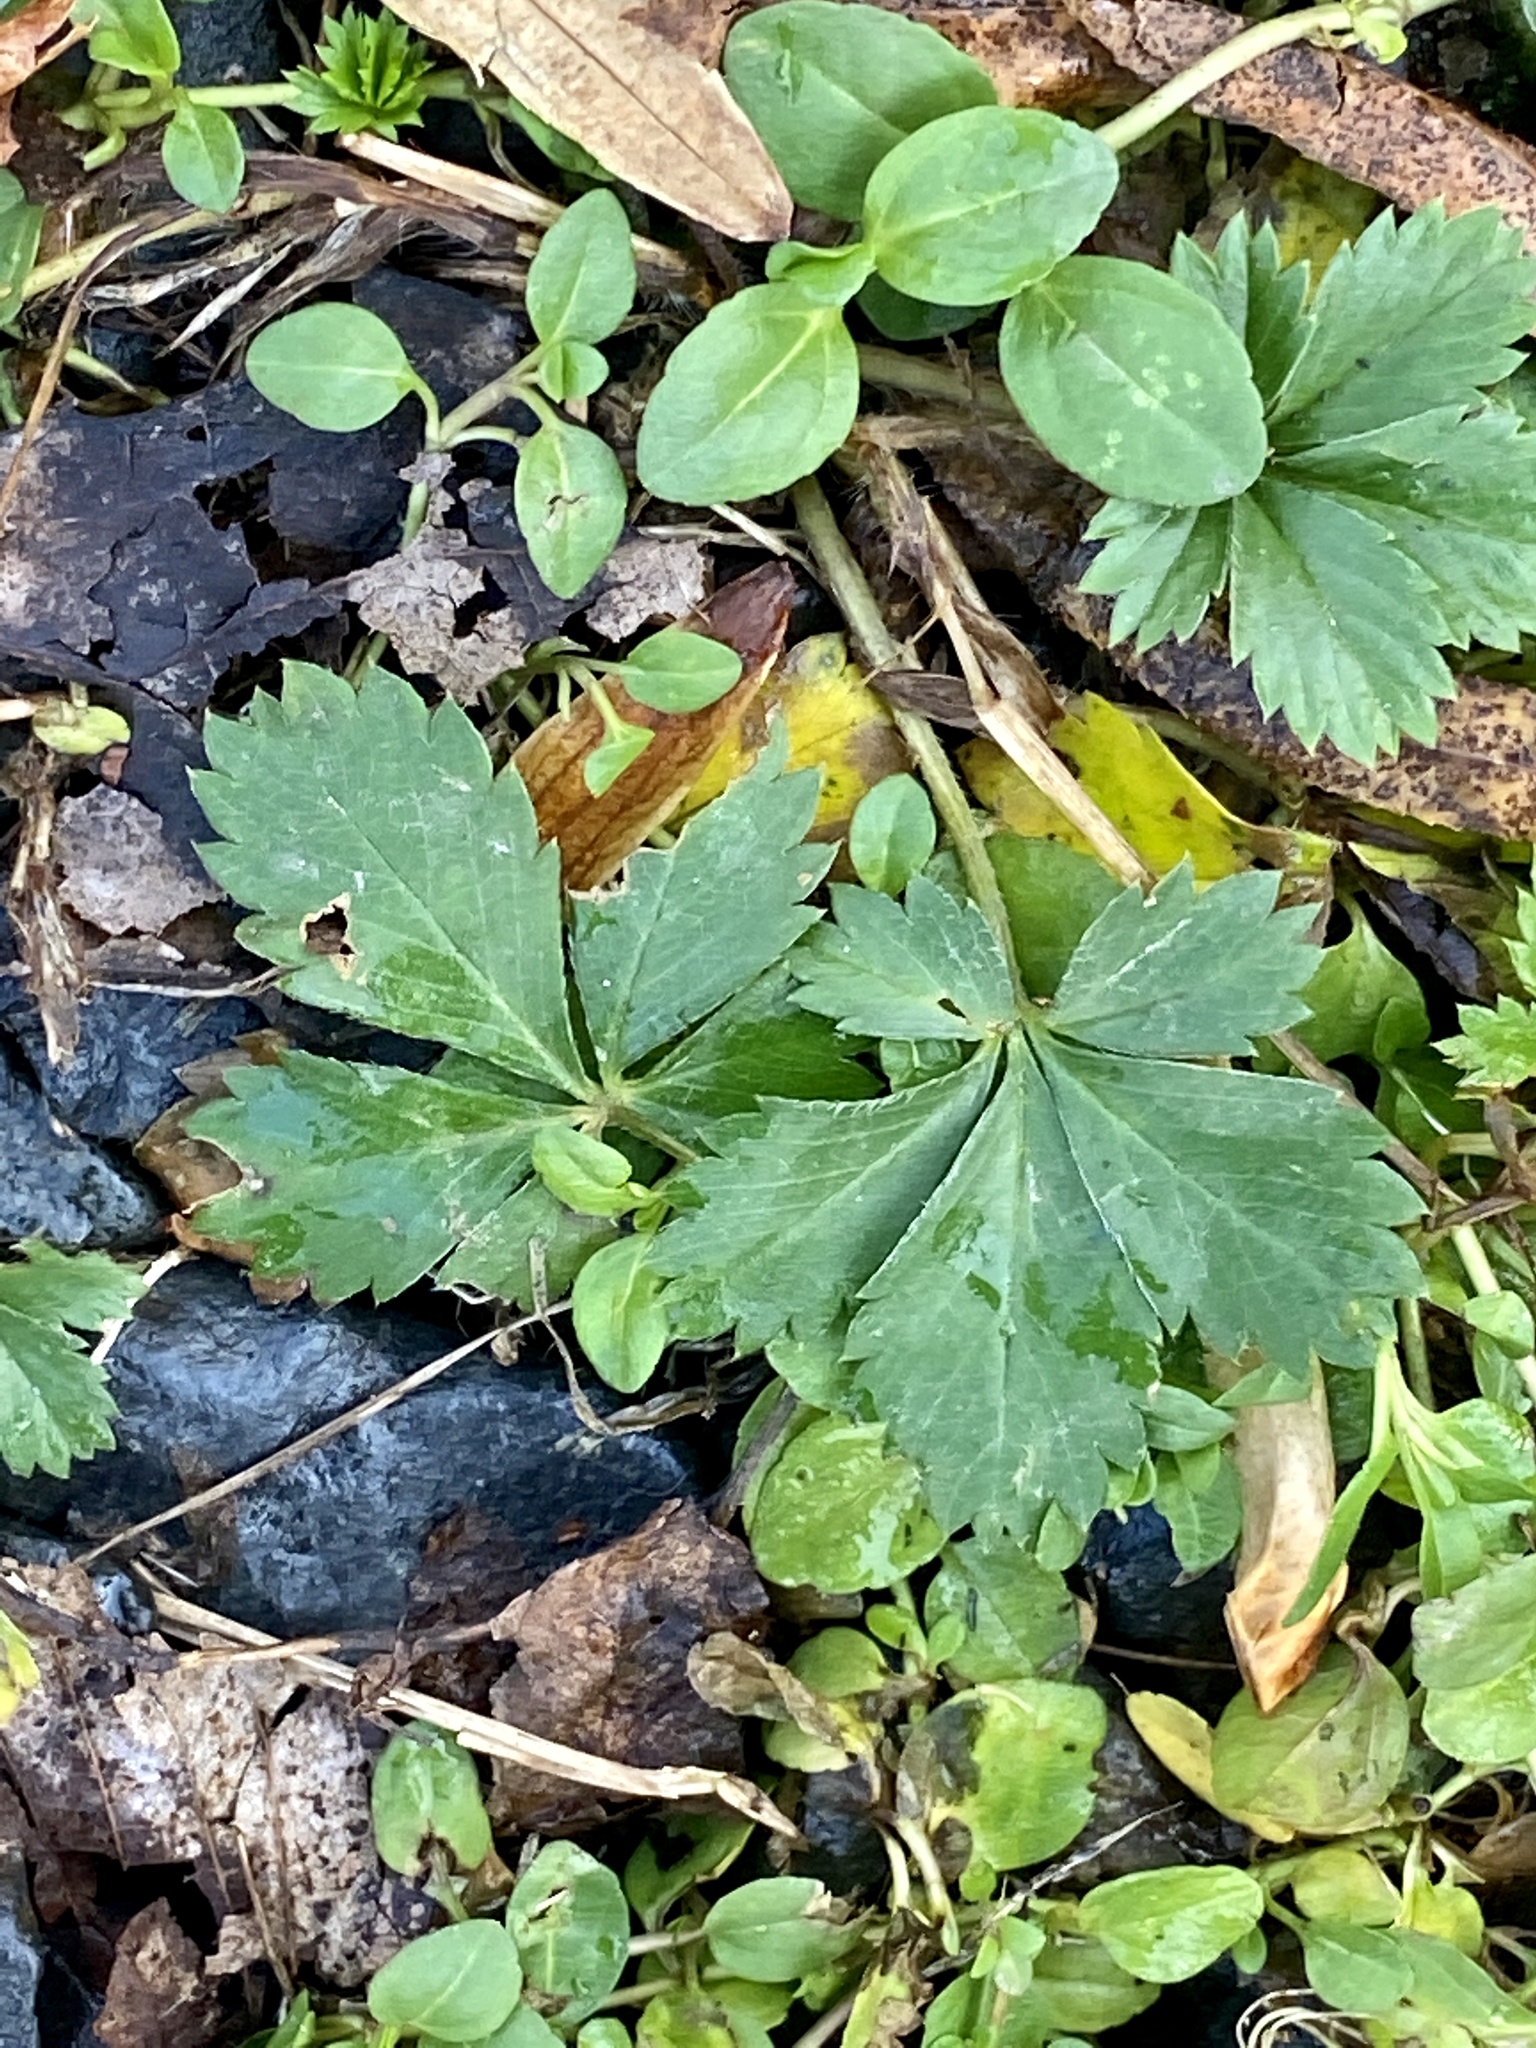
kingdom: Plantae
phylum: Tracheophyta
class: Magnoliopsida
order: Rosales
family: Rosaceae
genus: Potentilla
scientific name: Potentilla canadensis
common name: Canada cinquefoil
